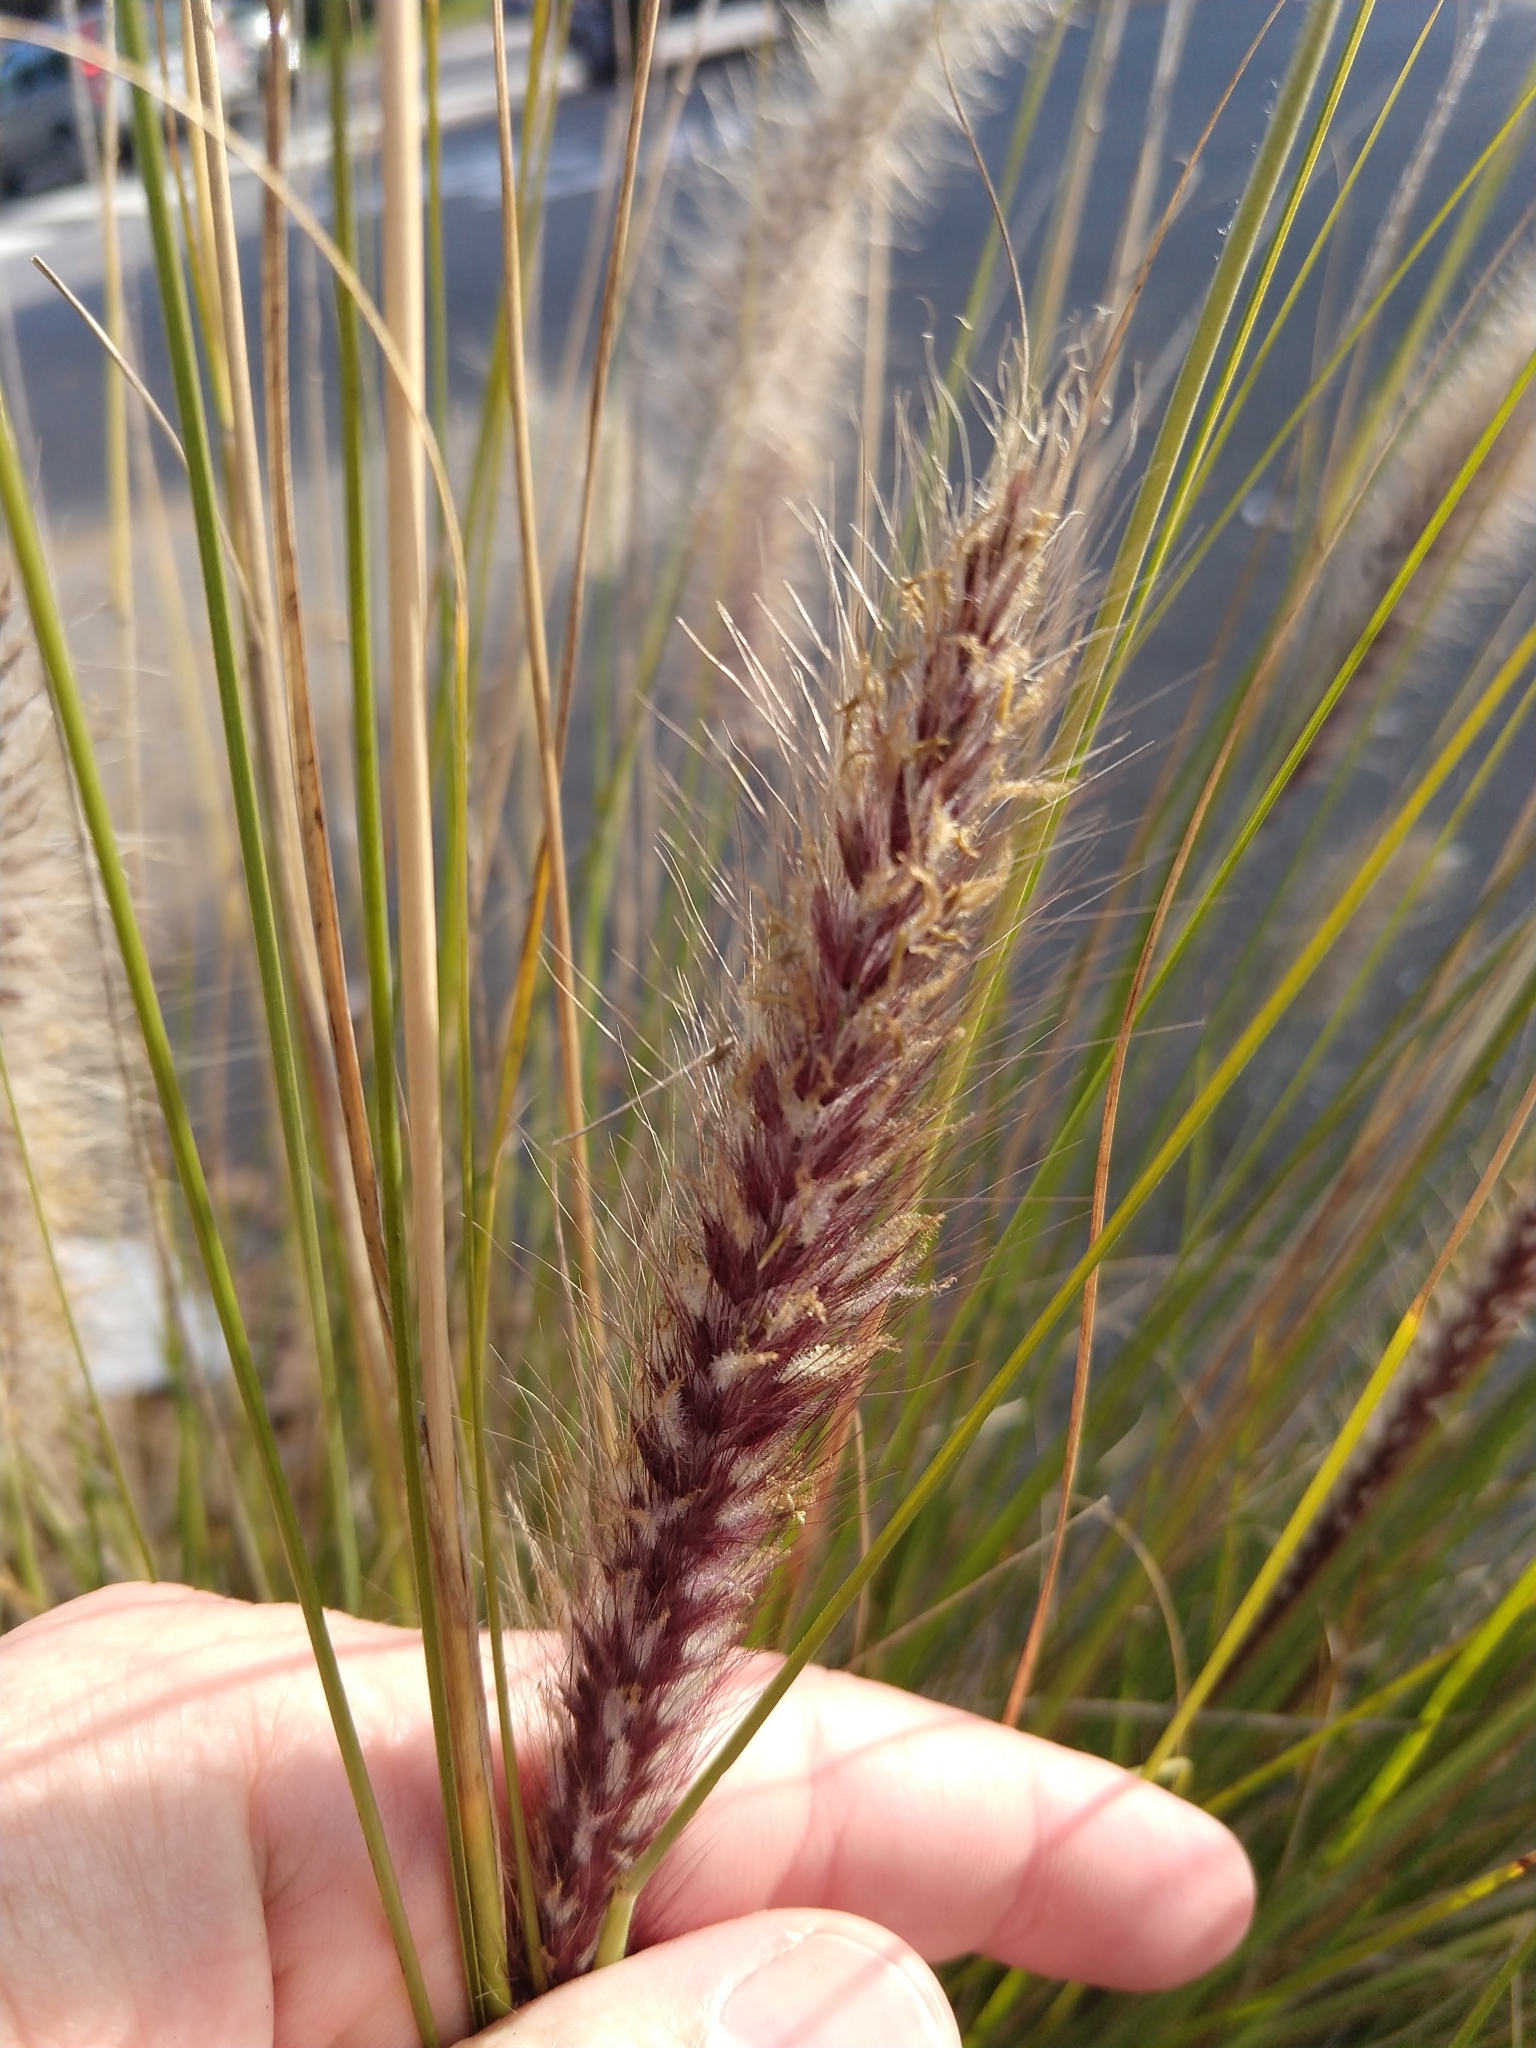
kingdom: Plantae
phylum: Tracheophyta
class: Liliopsida
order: Poales
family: Poaceae
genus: Cenchrus
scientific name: Cenchrus setaceus
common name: Crimson fountaingrass
